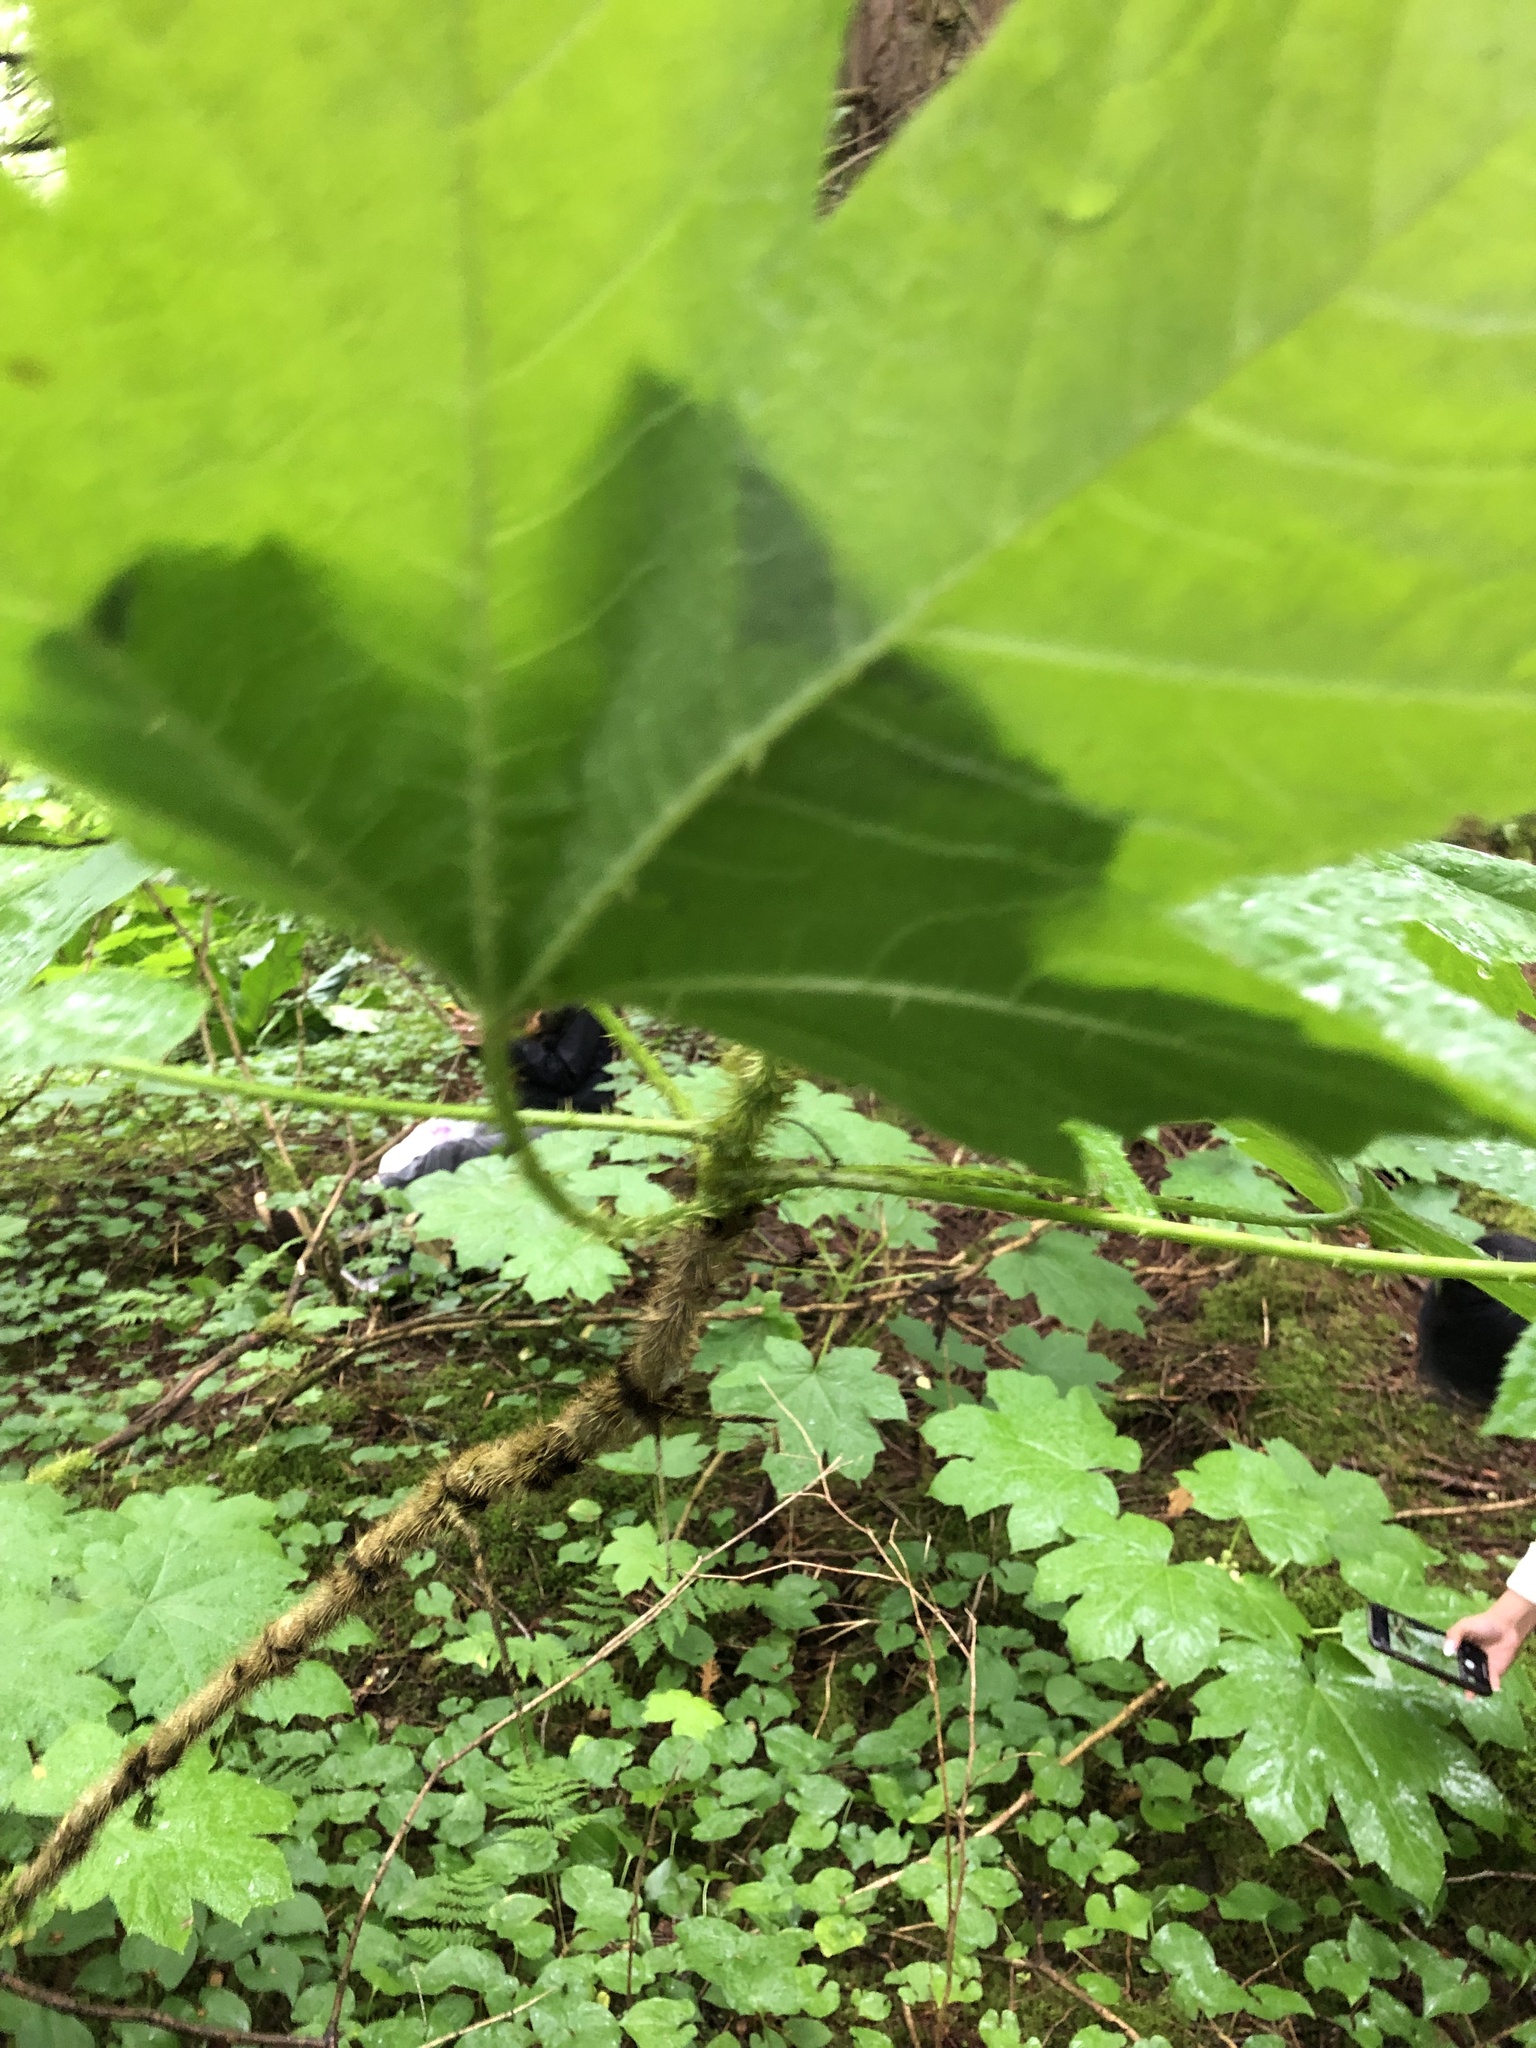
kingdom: Plantae
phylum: Tracheophyta
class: Magnoliopsida
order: Apiales
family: Araliaceae
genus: Oplopanax
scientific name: Oplopanax horridus
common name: Devil's walking-stick
